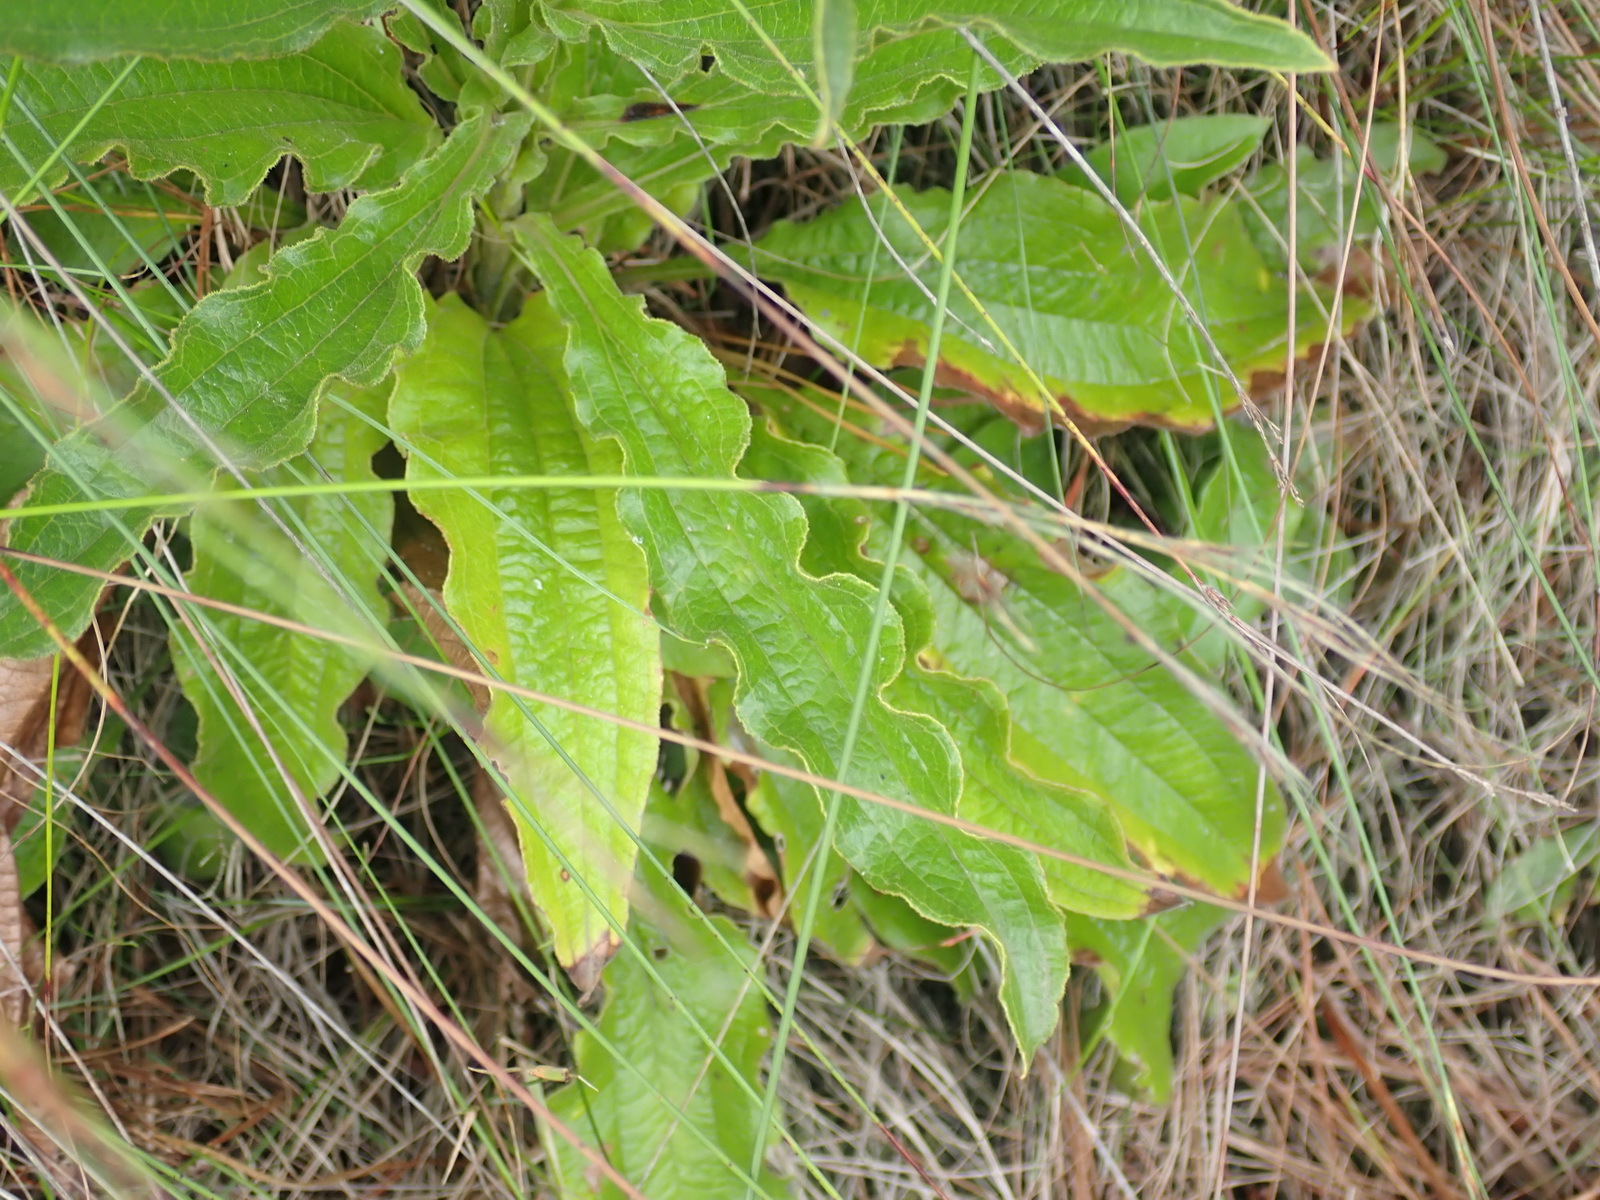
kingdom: Plantae
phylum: Tracheophyta
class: Magnoliopsida
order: Asterales
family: Asteraceae
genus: Helichrysum
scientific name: Helichrysum nudifolium
